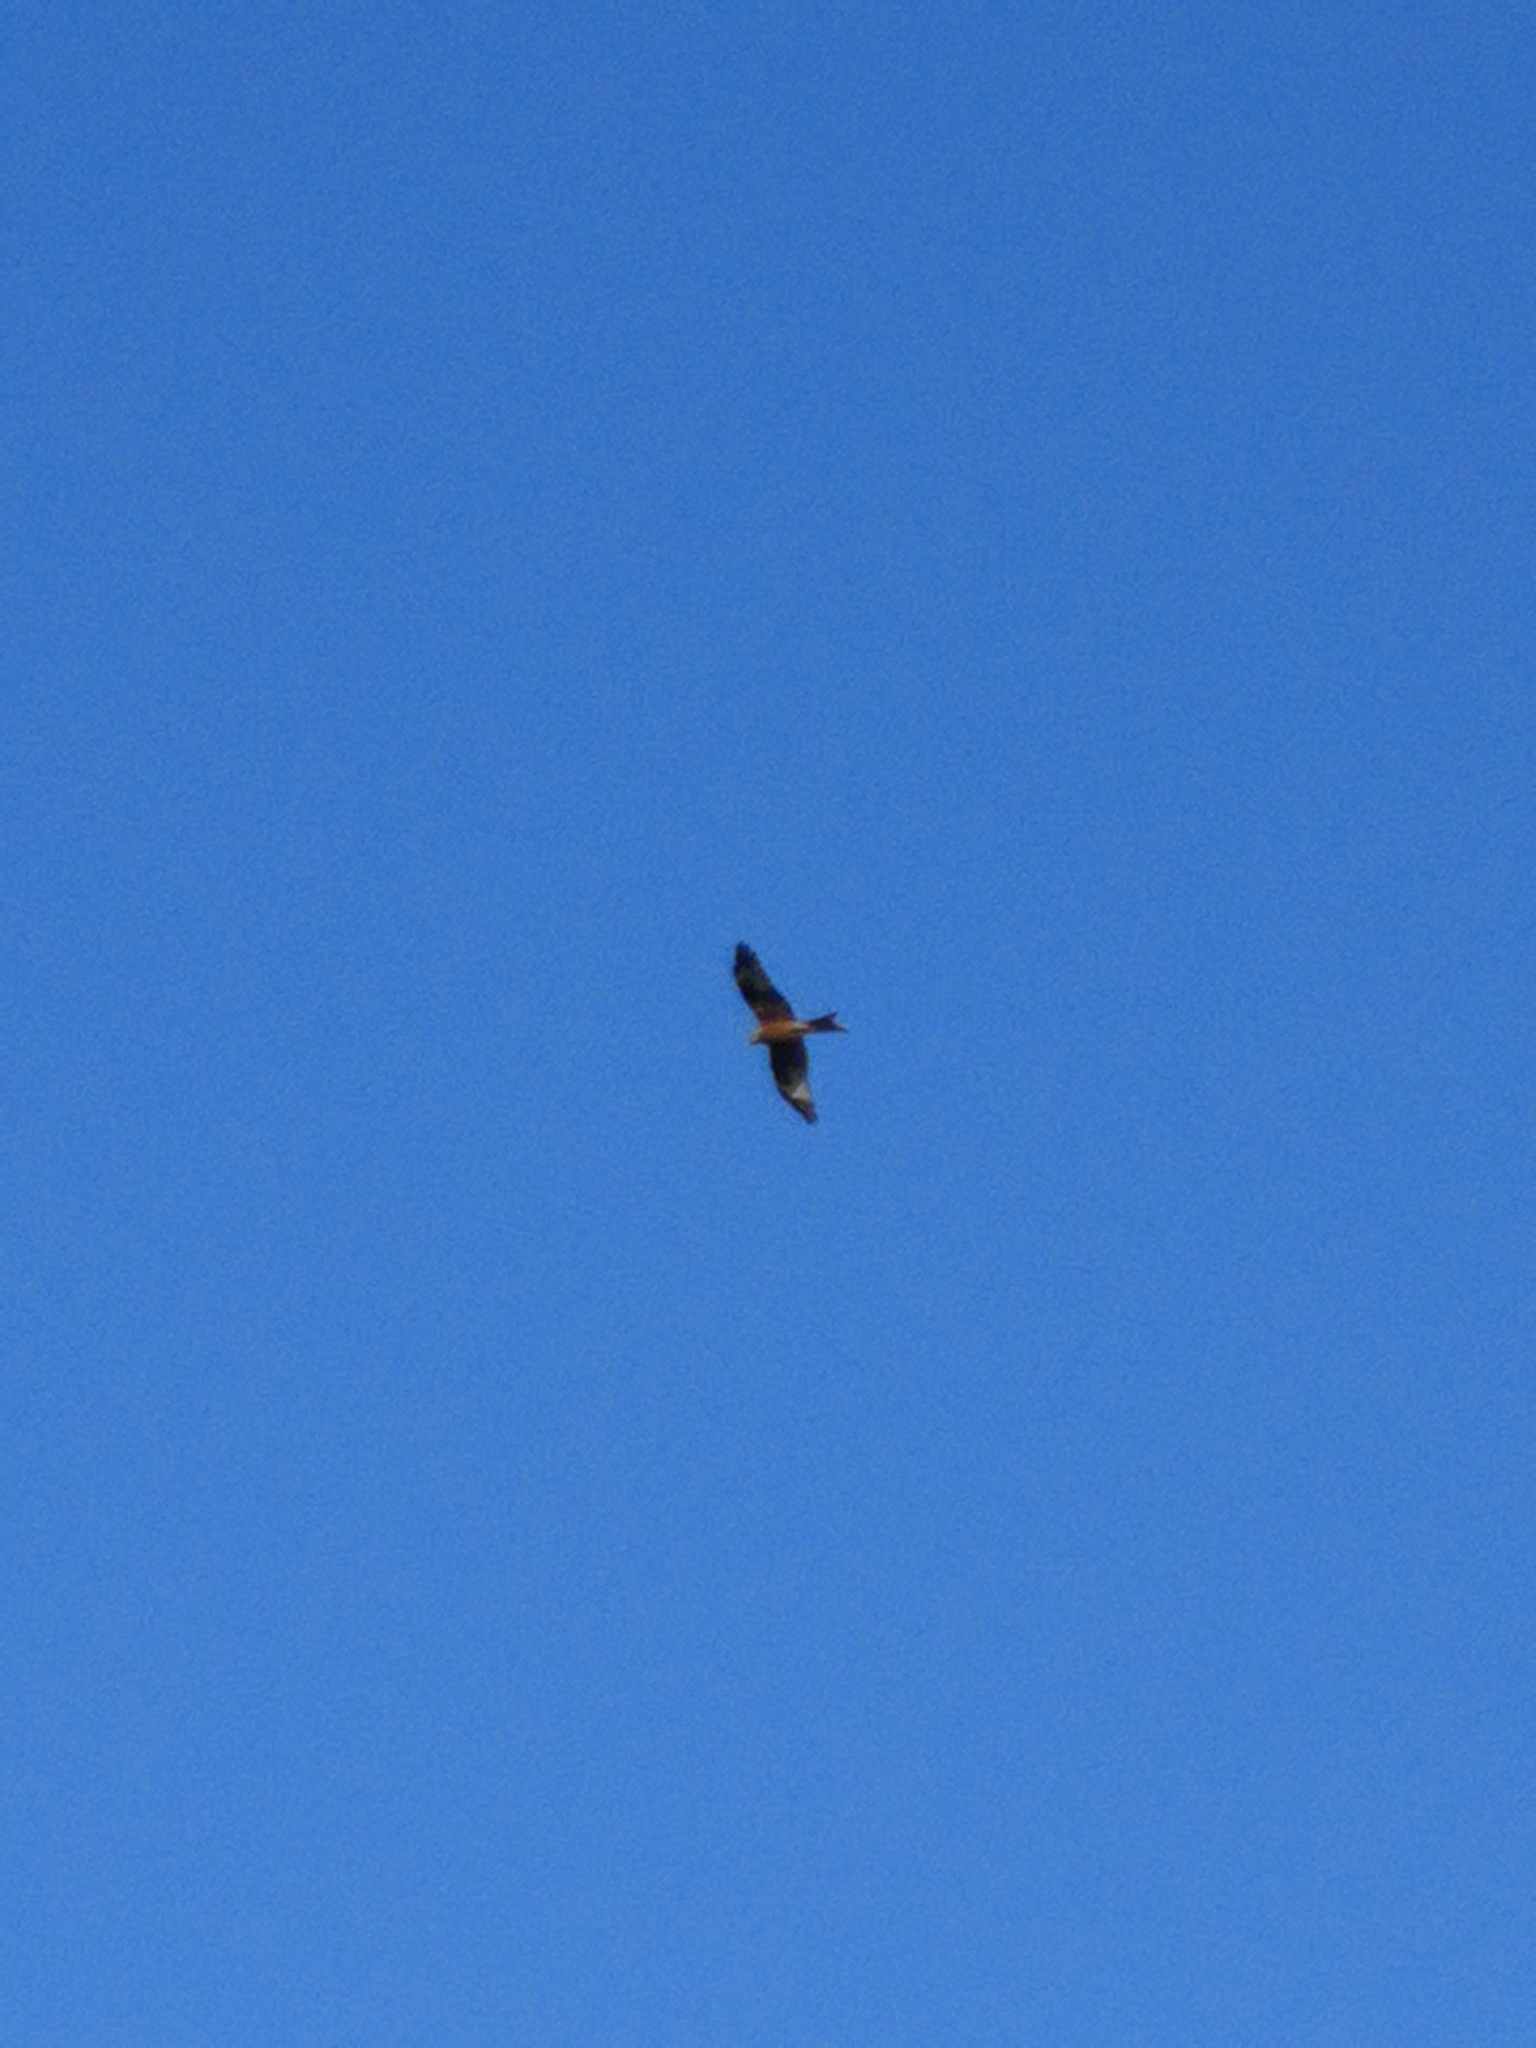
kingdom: Animalia
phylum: Chordata
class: Aves
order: Accipitriformes
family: Accipitridae
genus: Milvus
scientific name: Milvus milvus
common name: Red kite
